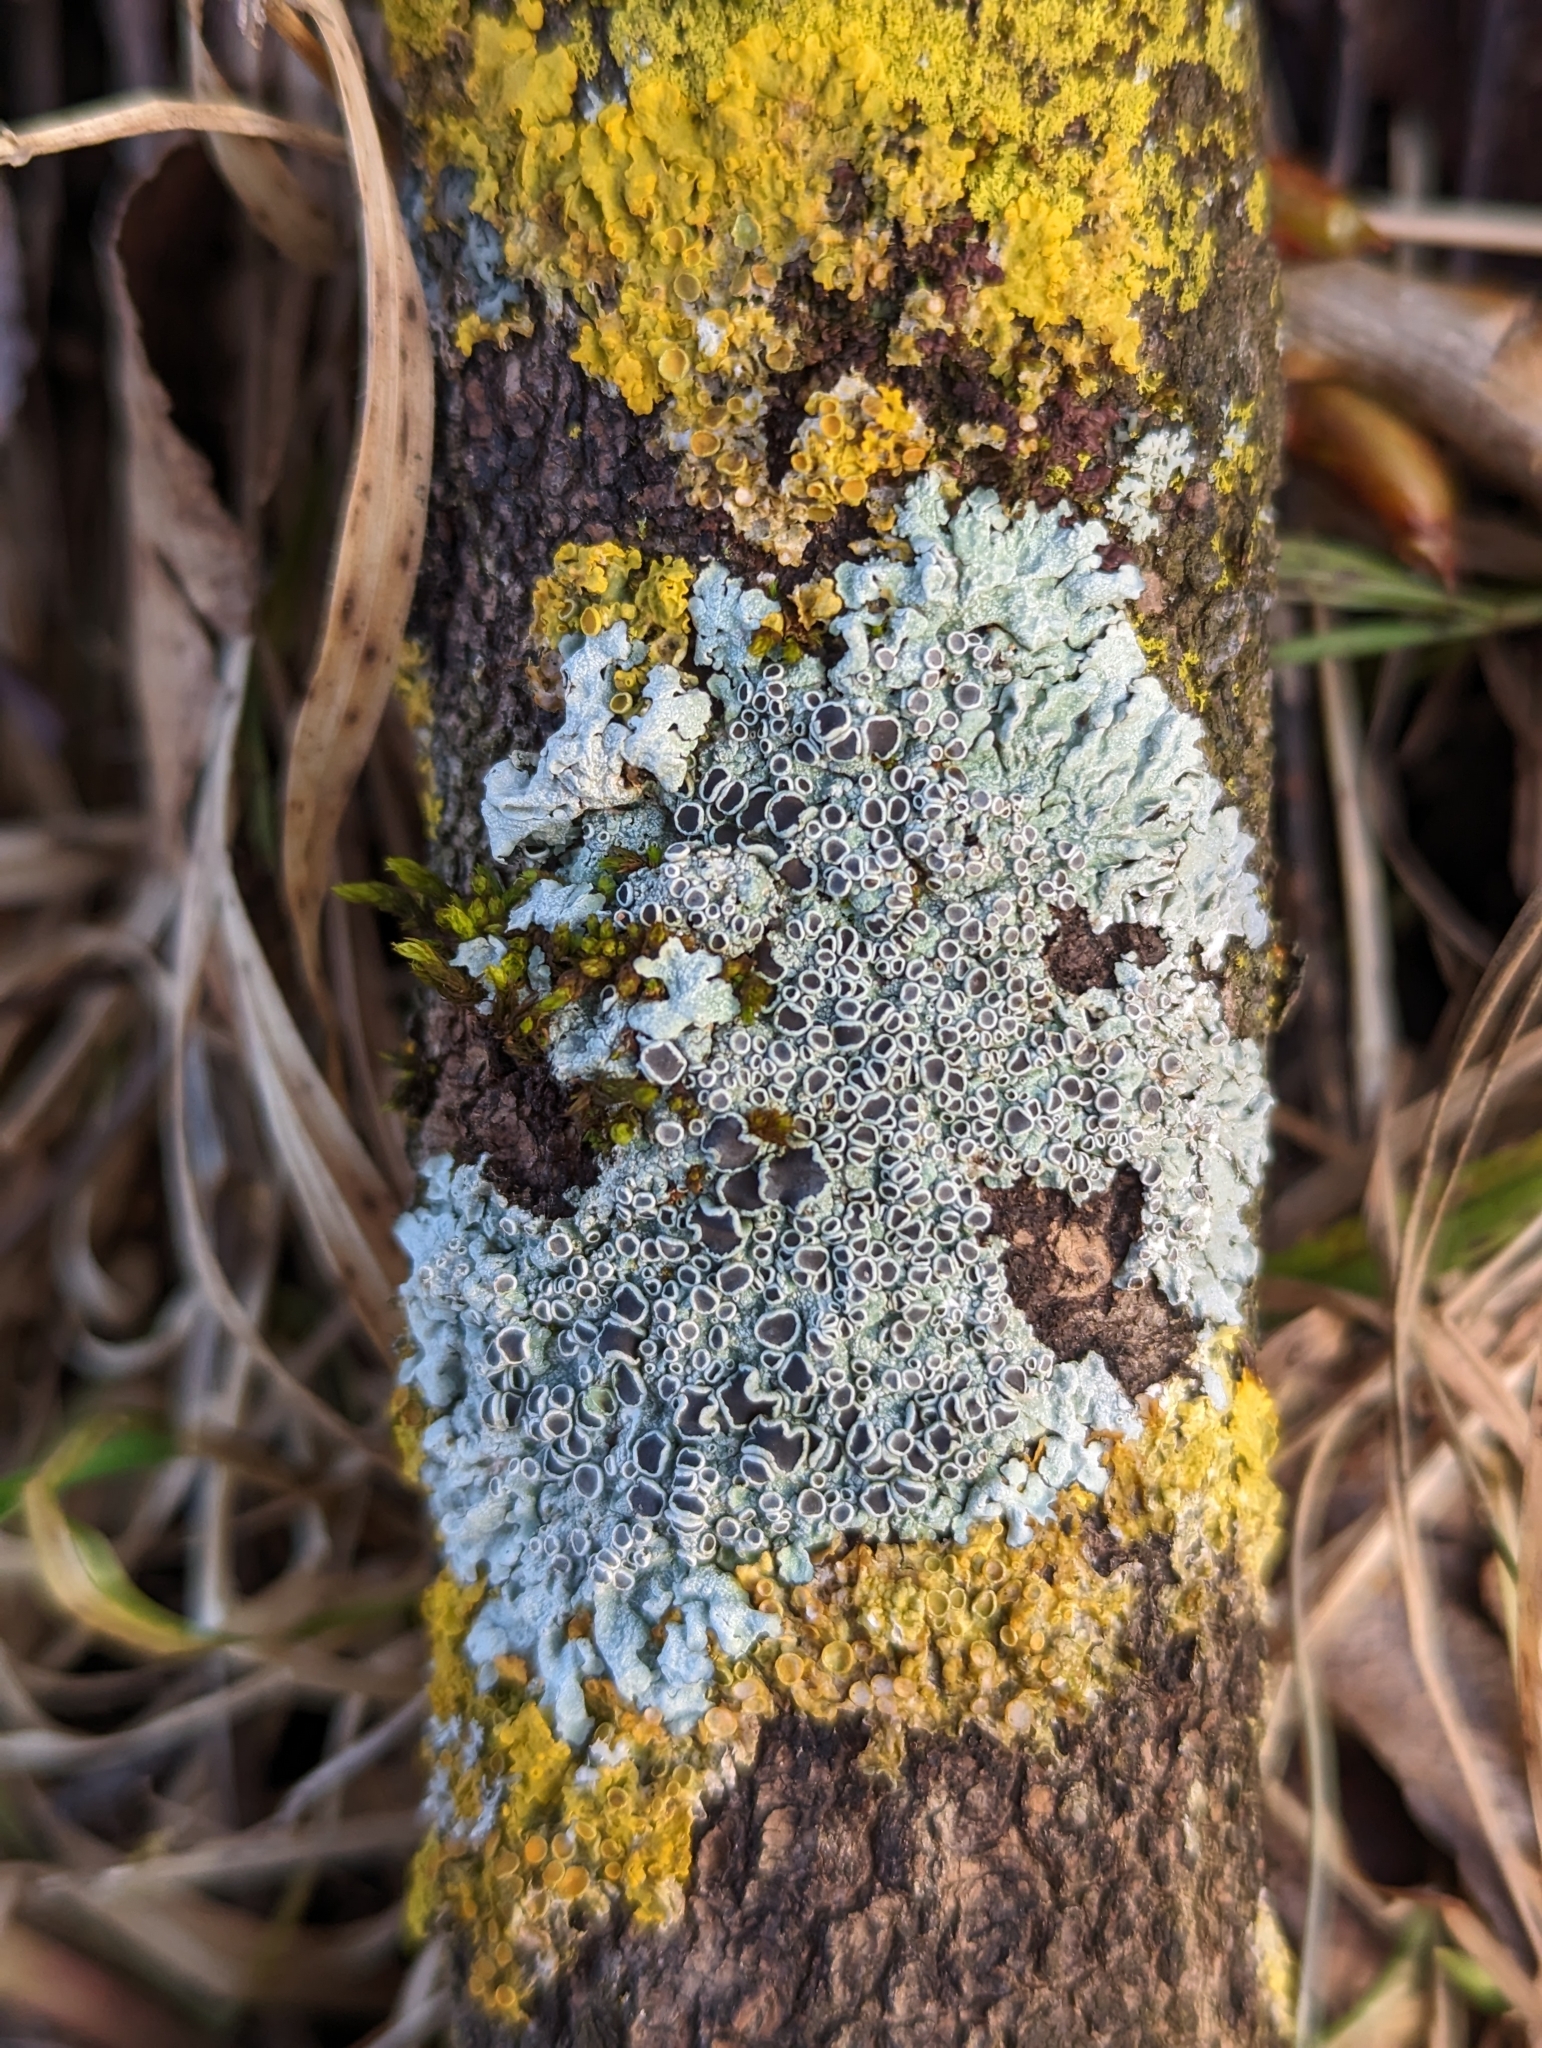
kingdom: Fungi
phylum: Ascomycota
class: Lecanoromycetes
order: Caliciales
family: Physciaceae
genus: Physcia
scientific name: Physcia aipolia
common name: Hoary rosette lichen
